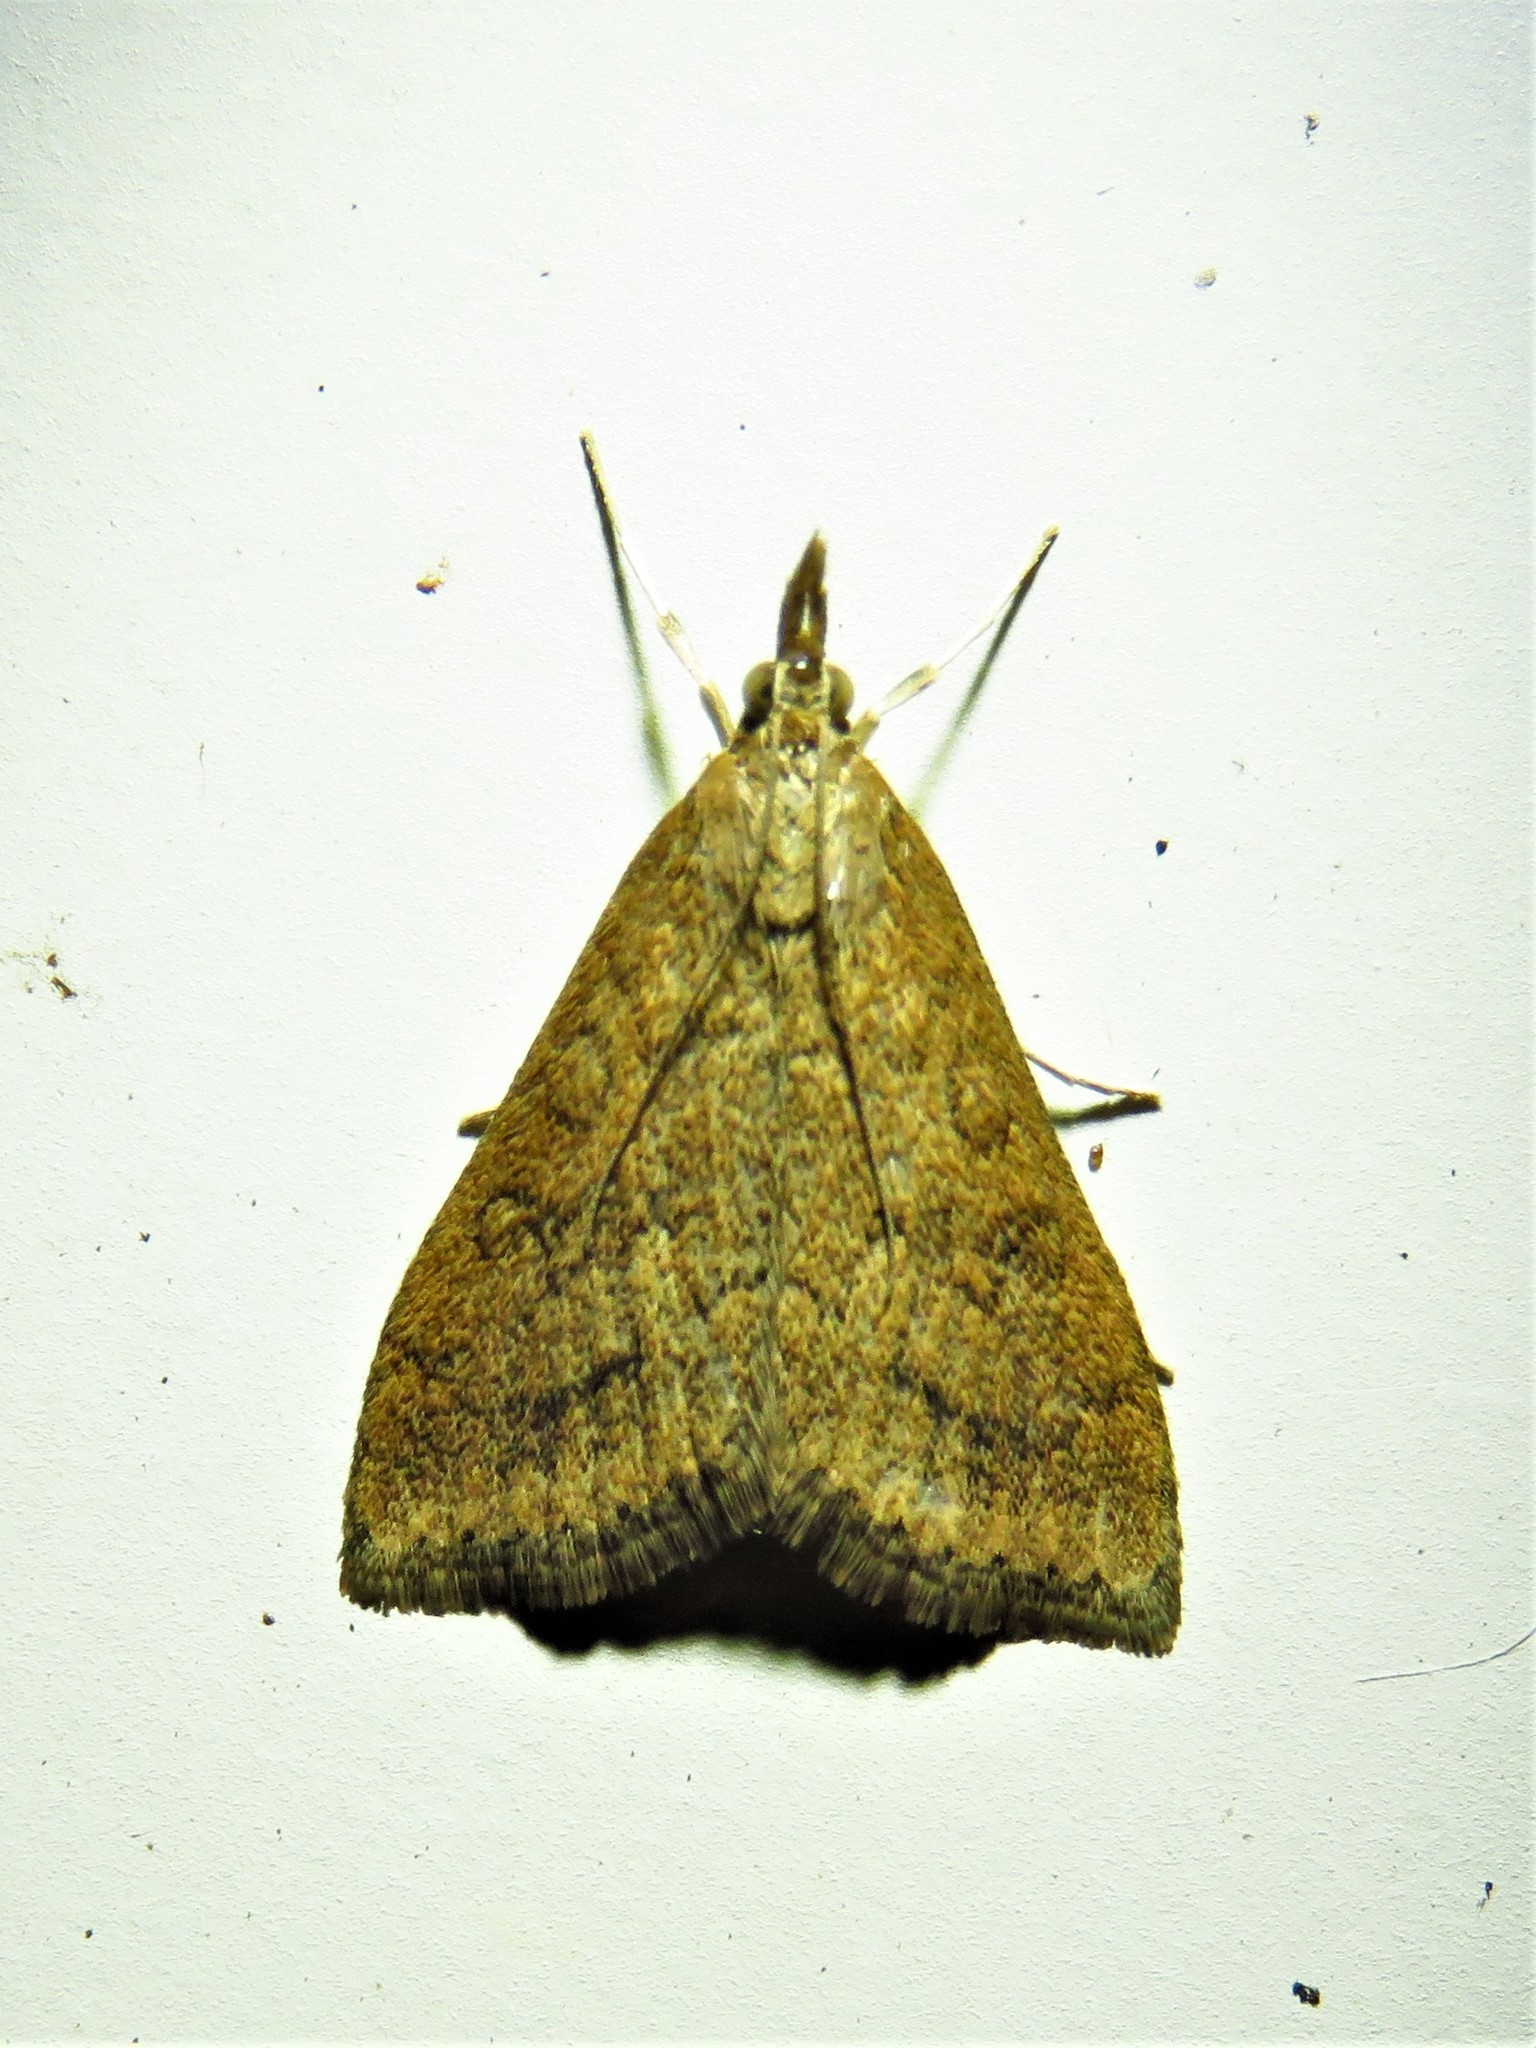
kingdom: Animalia
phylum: Arthropoda
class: Insecta
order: Lepidoptera
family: Crambidae
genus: Udea
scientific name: Udea rubigalis
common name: Celery leaftier moth
